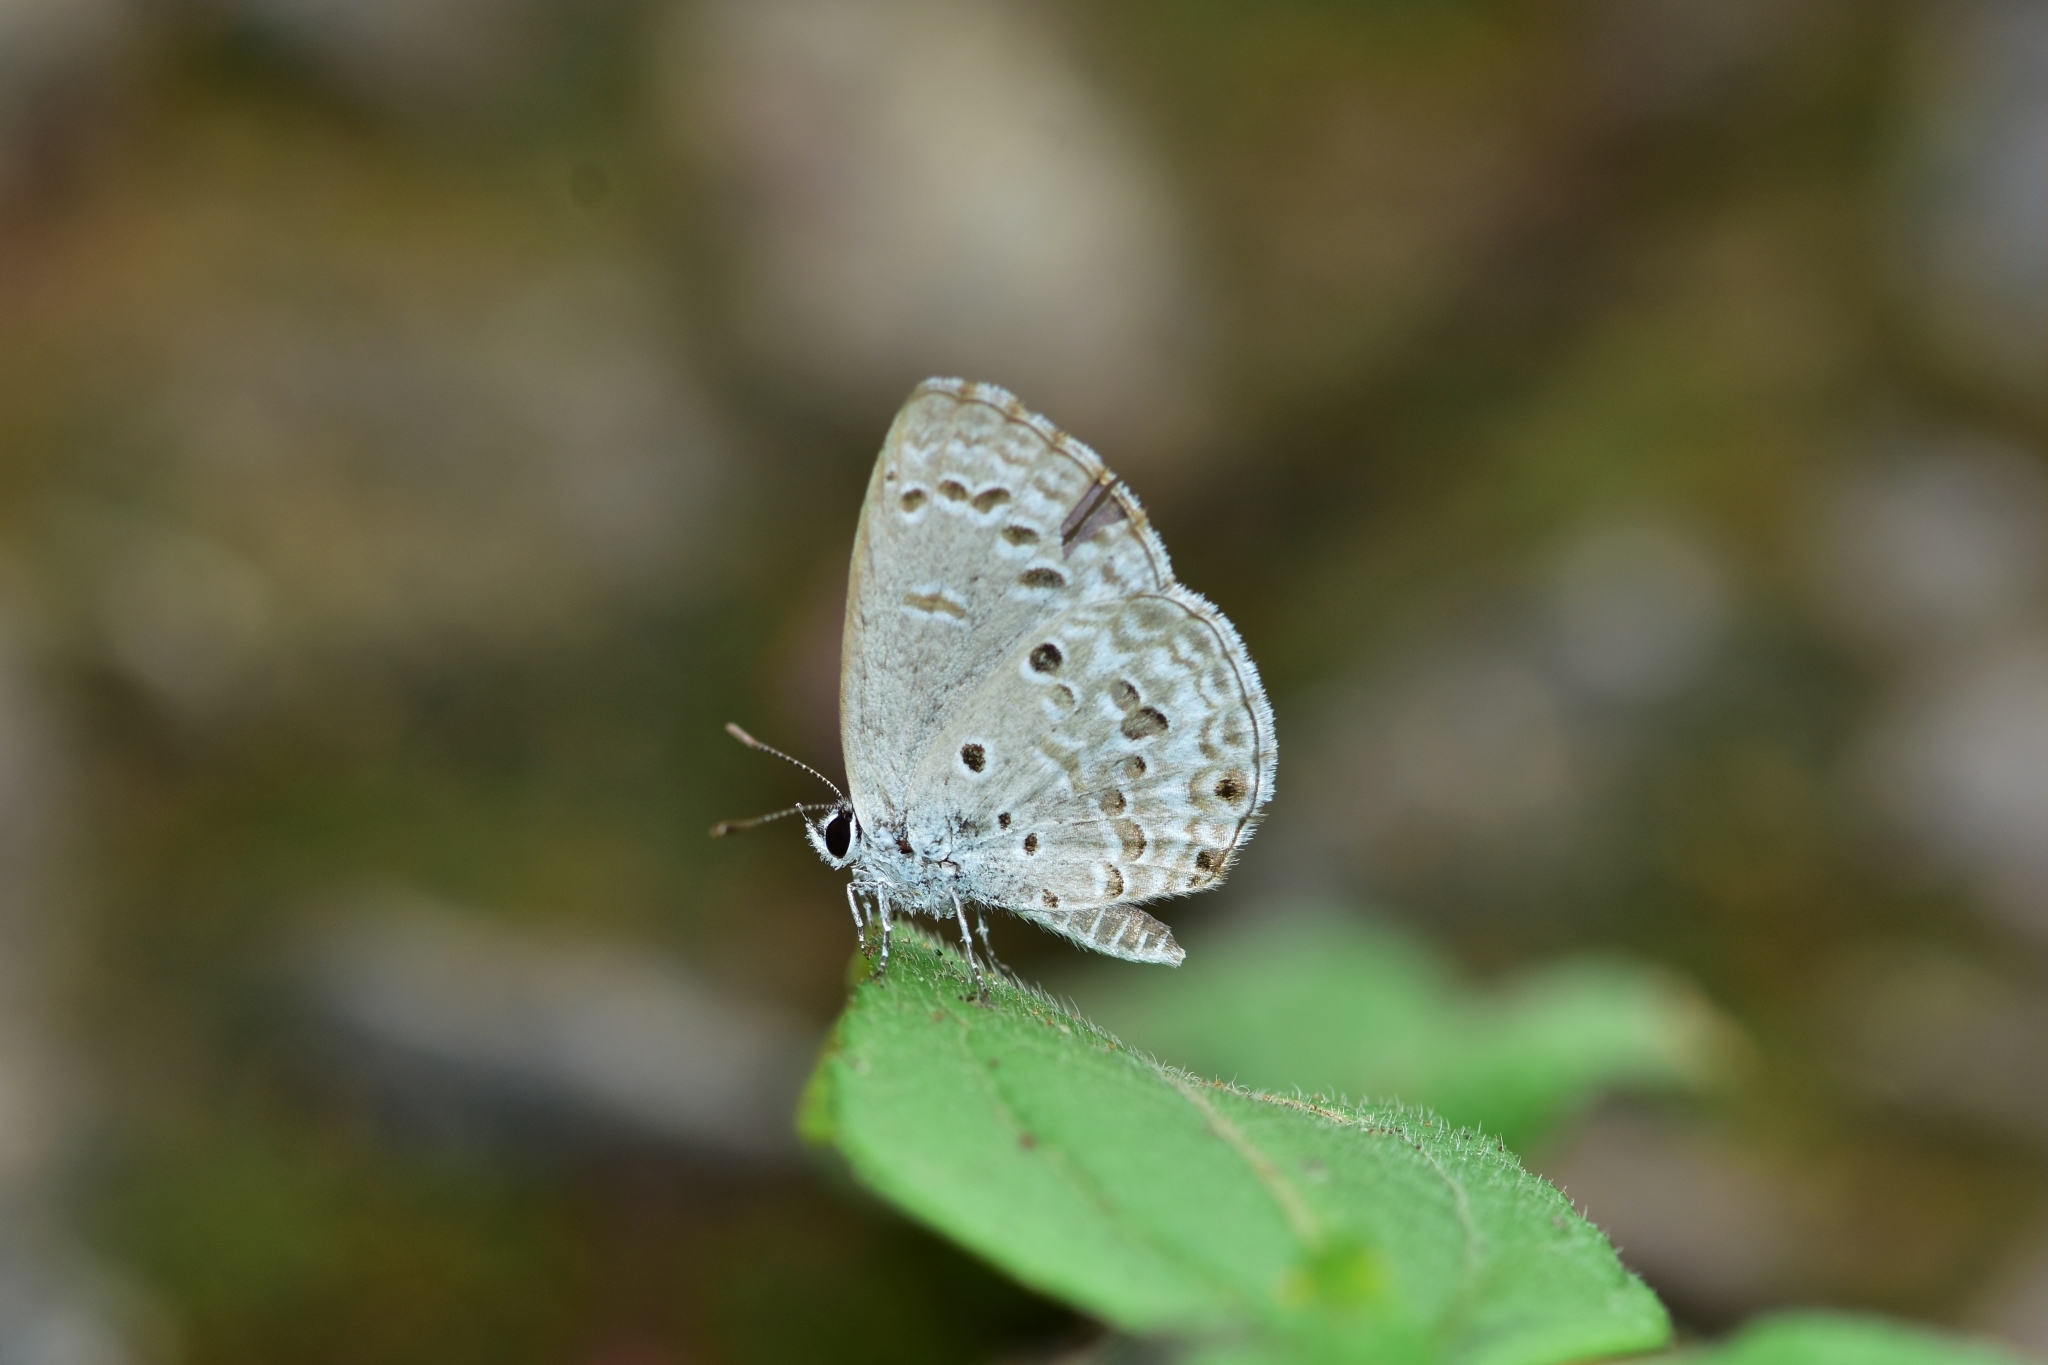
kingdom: Animalia
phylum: Arthropoda
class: Insecta
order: Lepidoptera
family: Lycaenidae
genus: Chilades
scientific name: Chilades laius
